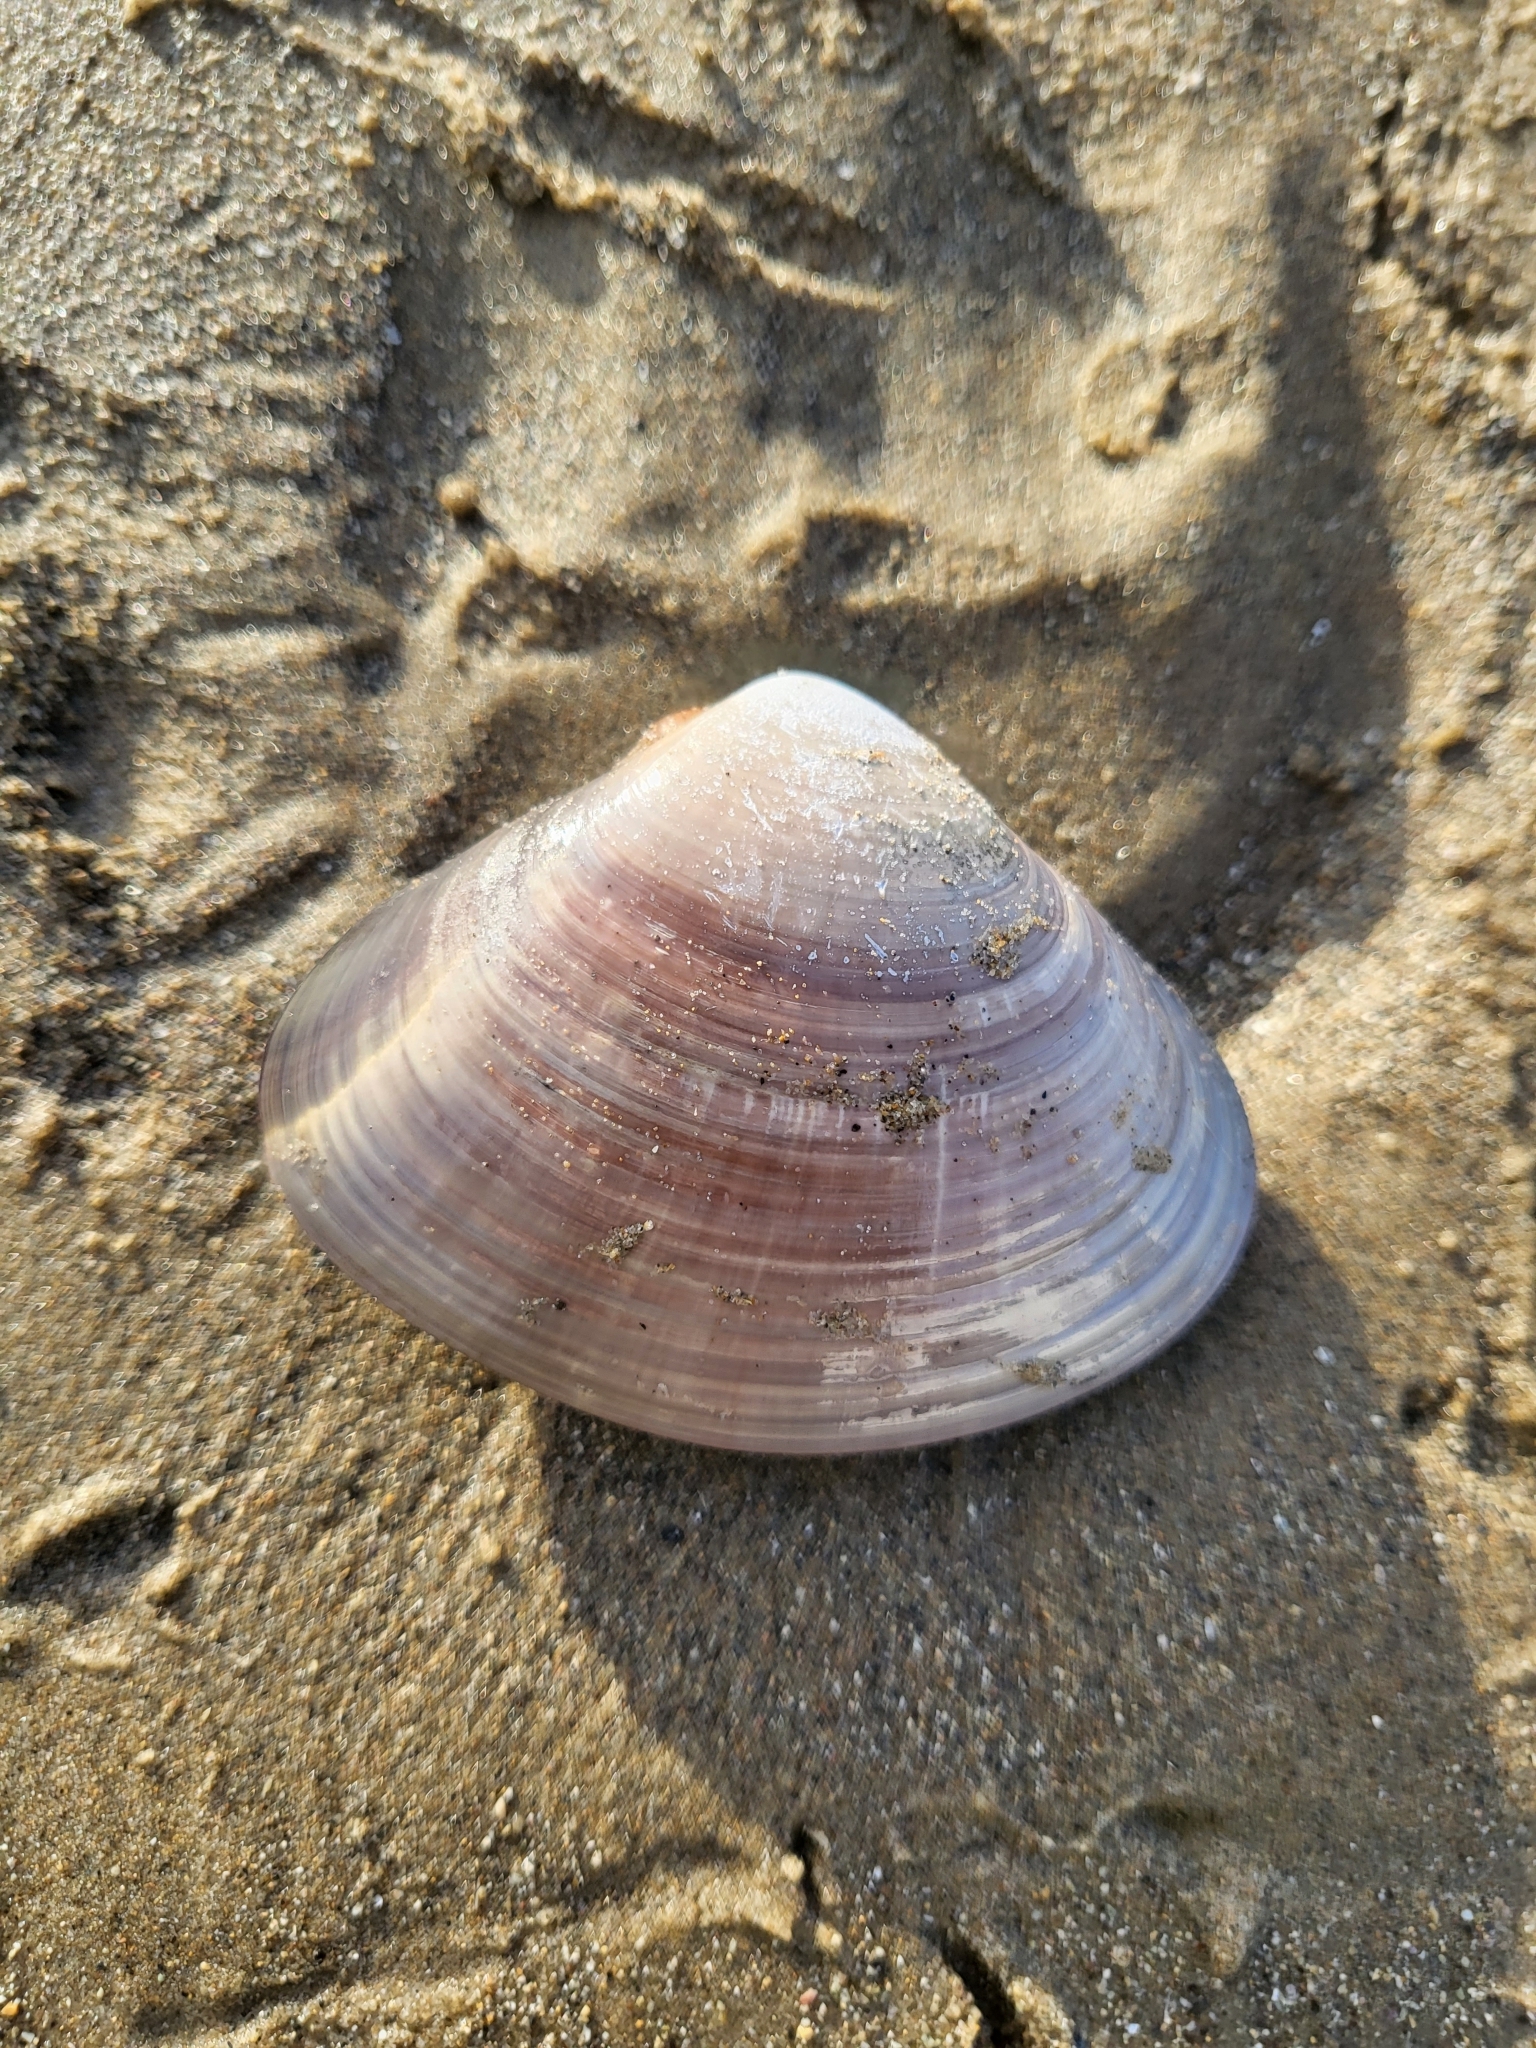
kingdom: Animalia
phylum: Mollusca
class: Bivalvia
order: Venerida
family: Veneridae
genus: Tivela
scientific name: Tivela stultorum
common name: Pismo clam
